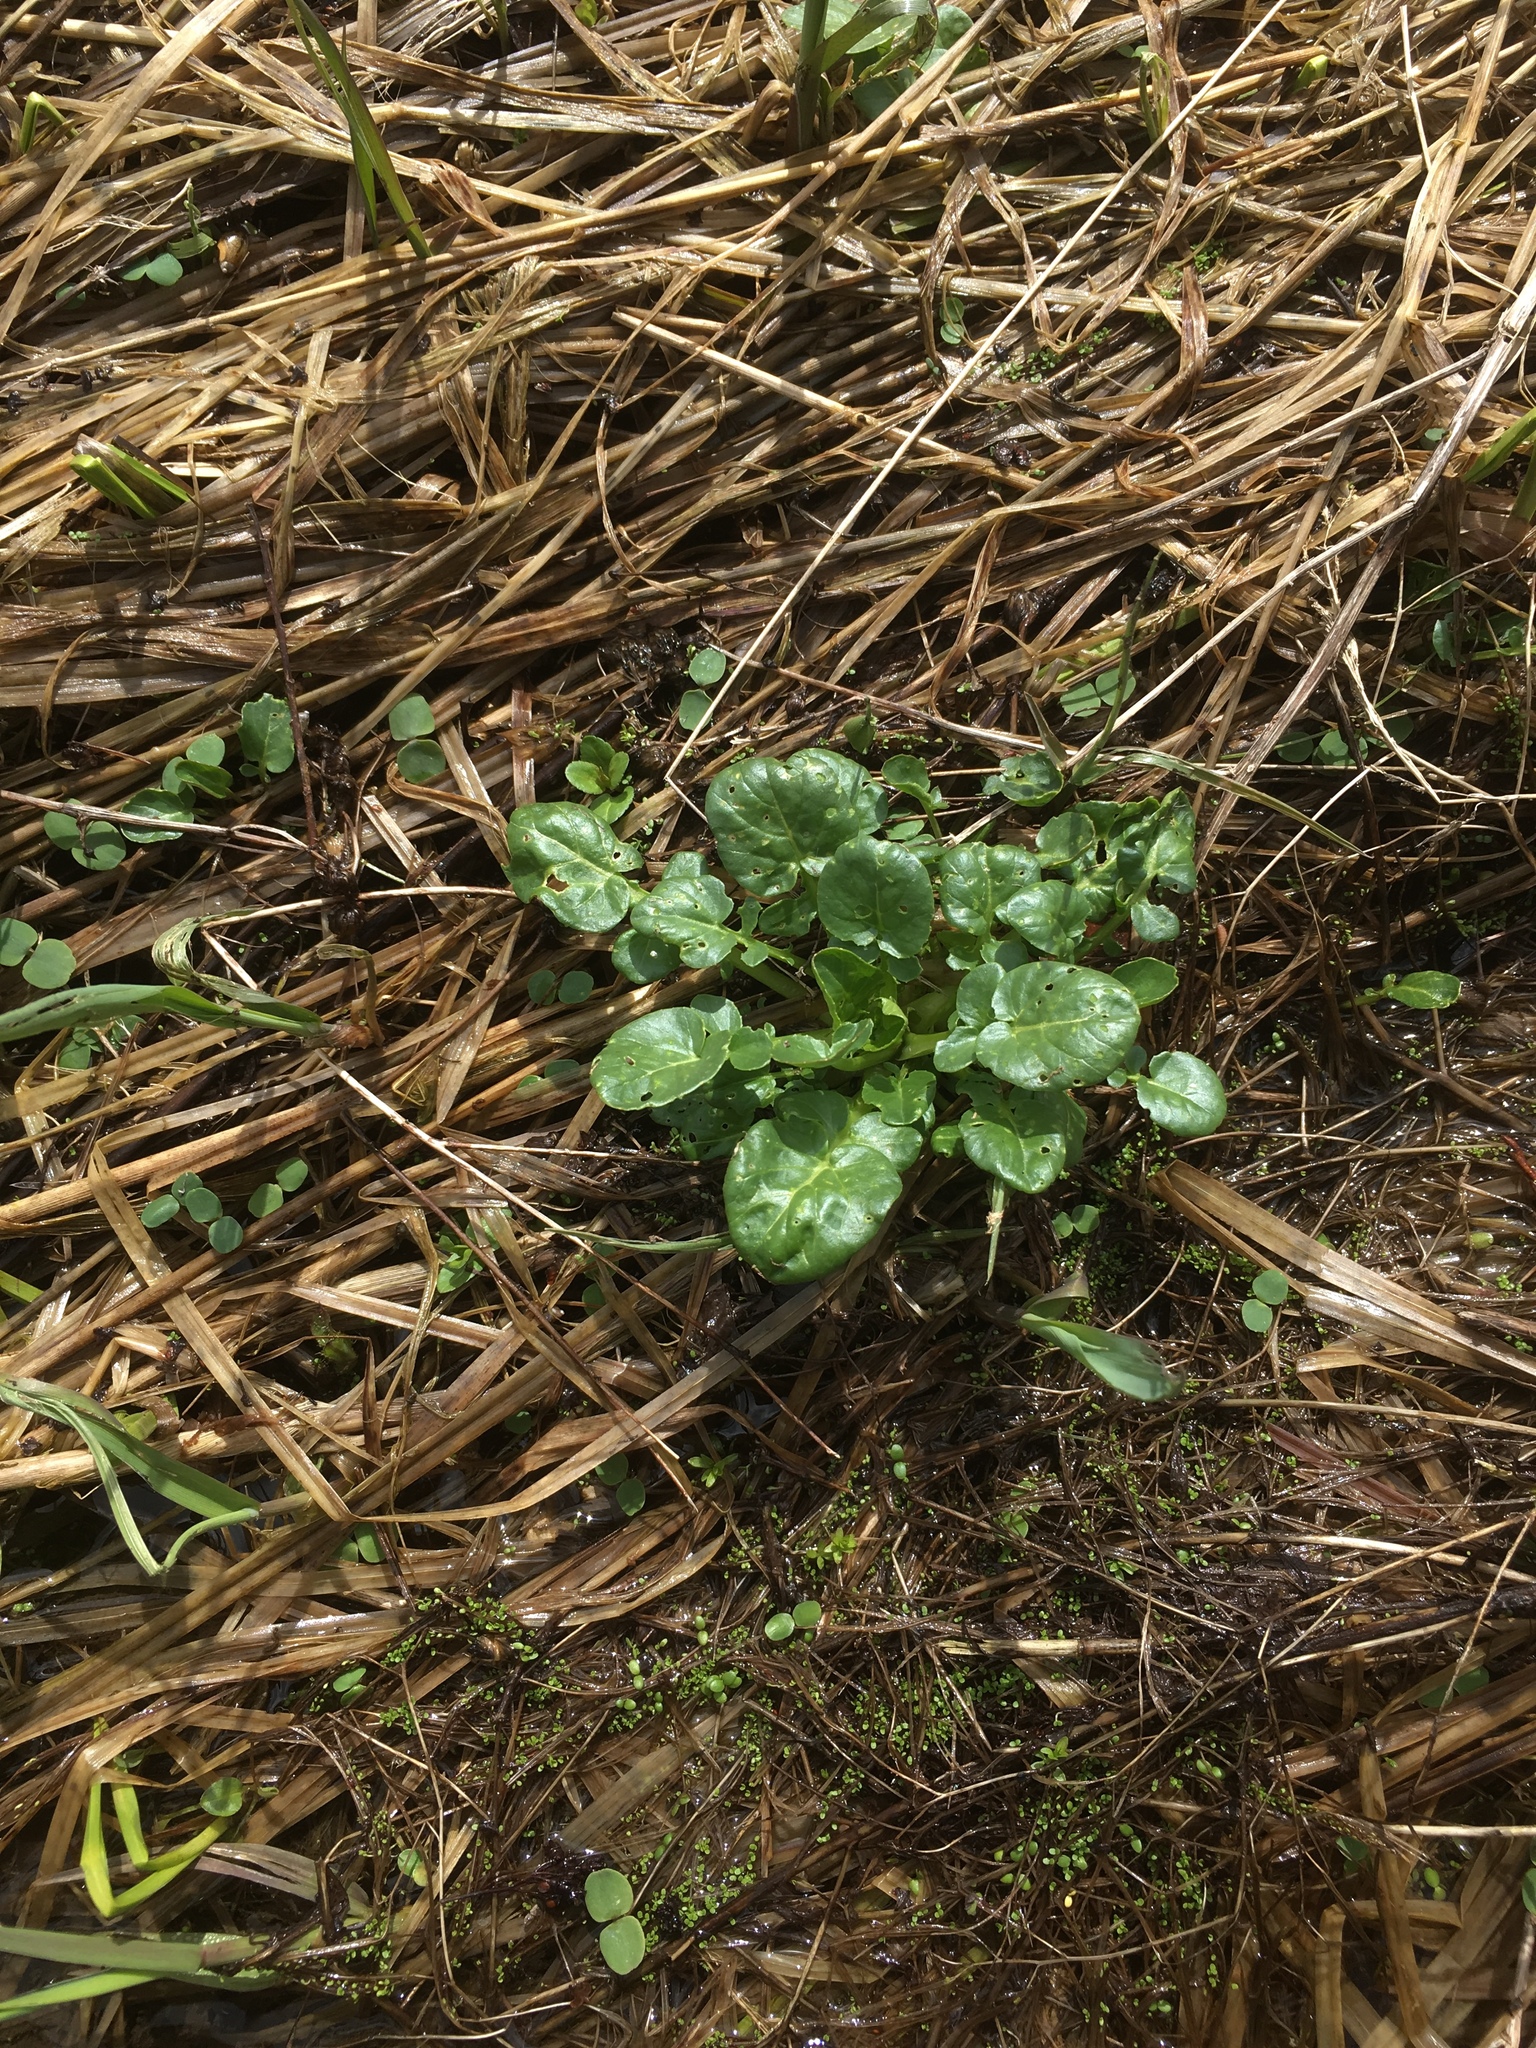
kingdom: Plantae
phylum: Tracheophyta
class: Magnoliopsida
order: Brassicales
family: Brassicaceae
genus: Barbarea
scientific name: Barbarea vulgaris
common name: Cressy-greens
